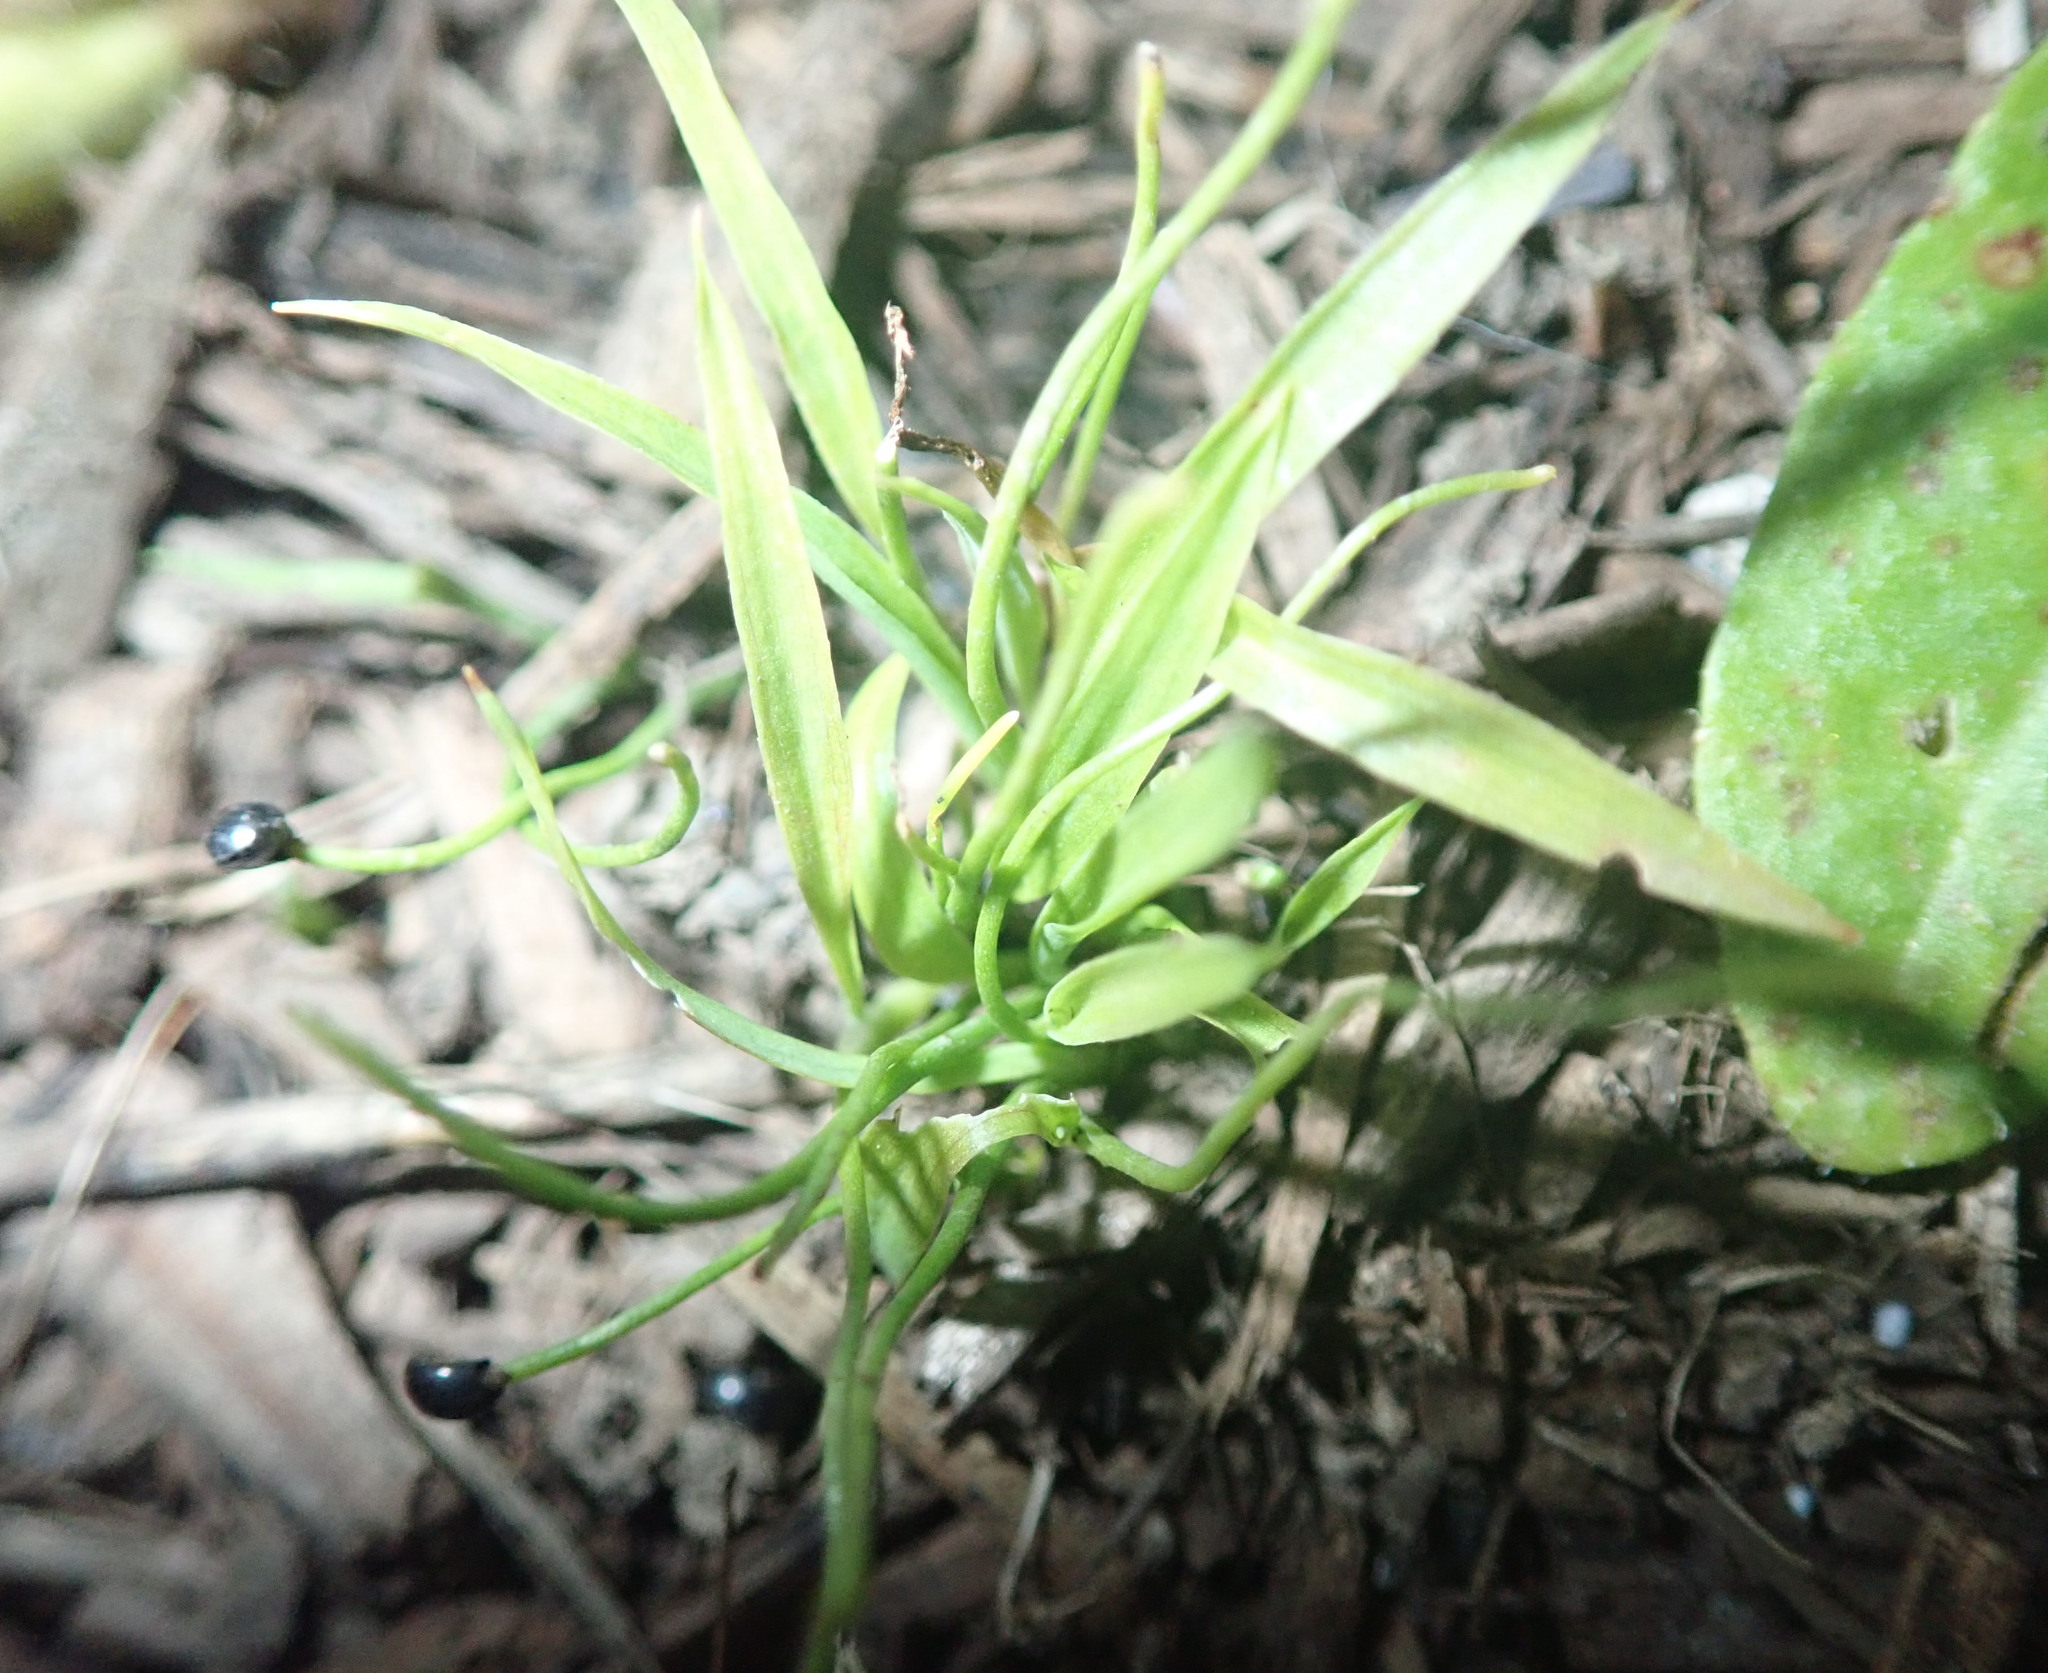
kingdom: Plantae
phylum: Tracheophyta
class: Liliopsida
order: Asparagales
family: Asparagaceae
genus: Cordyline
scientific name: Cordyline australis
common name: Cabbage-palm
